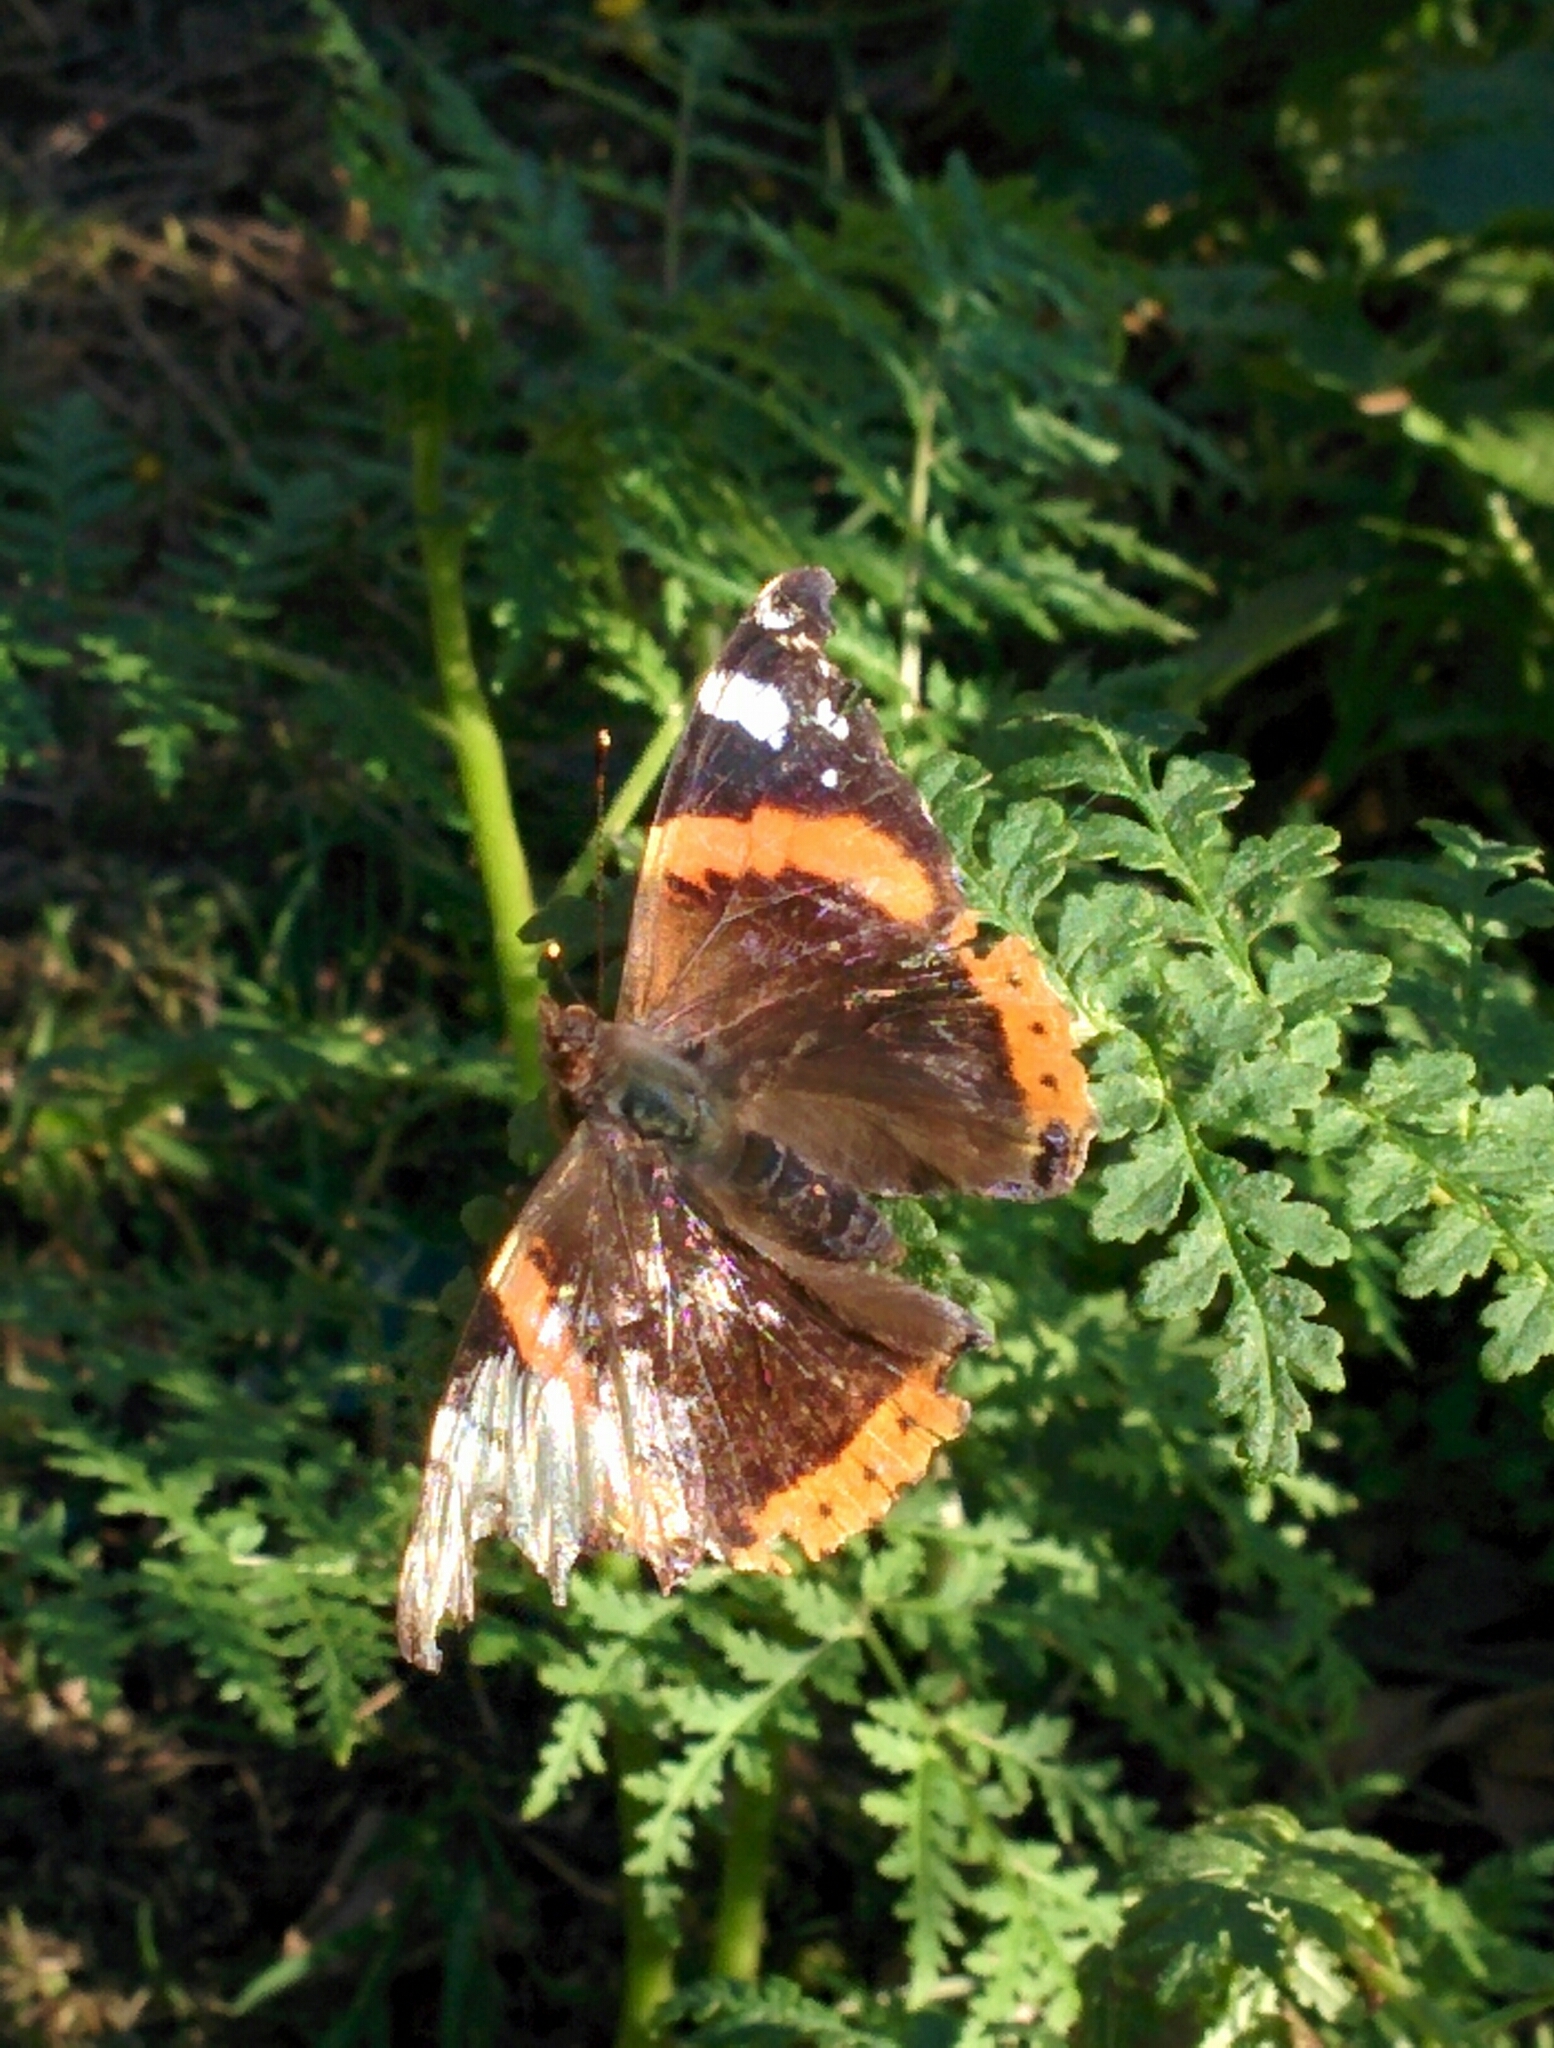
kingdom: Animalia
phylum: Arthropoda
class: Insecta
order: Lepidoptera
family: Nymphalidae
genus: Vanessa
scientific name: Vanessa atalanta
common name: Red admiral
